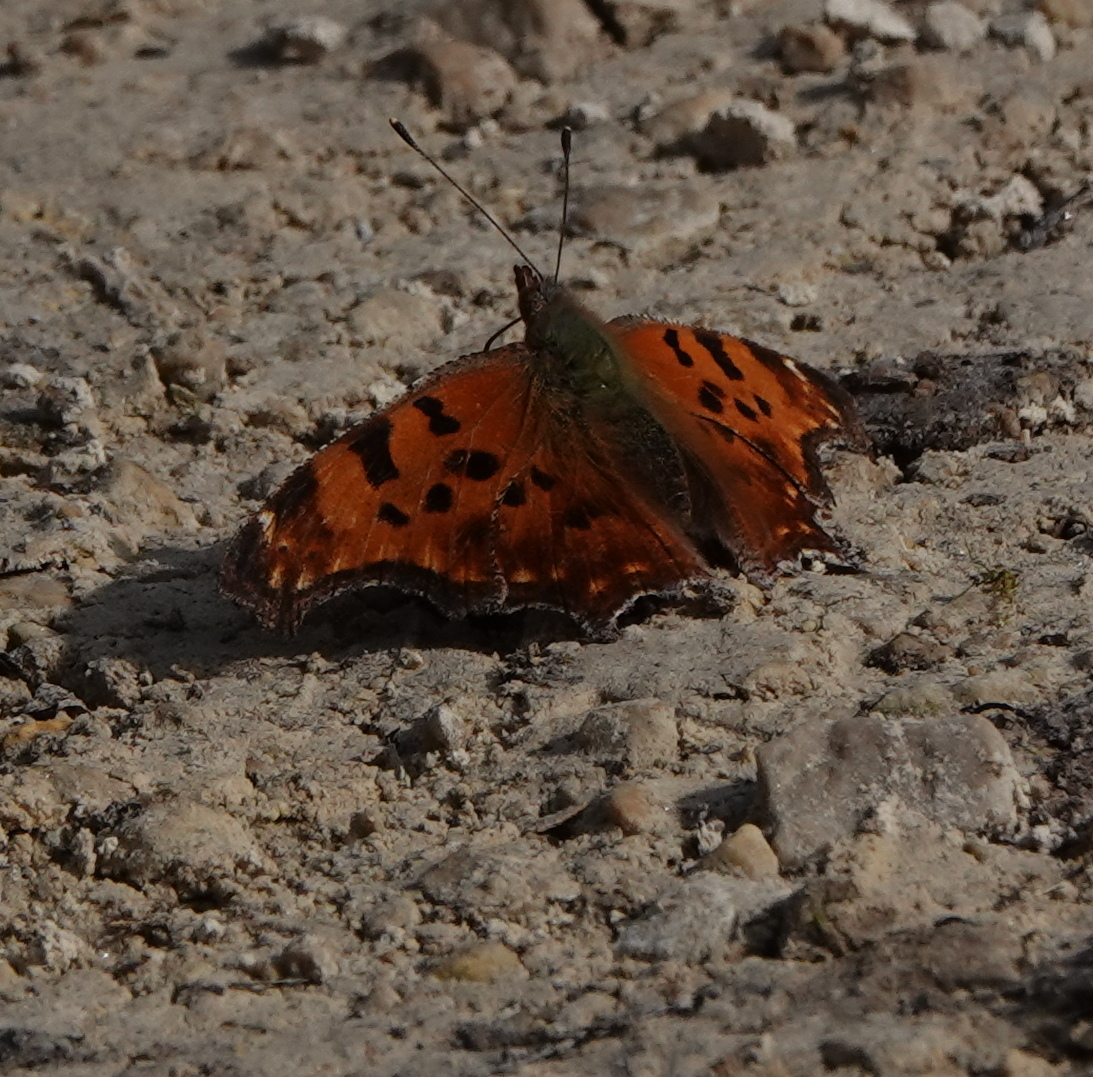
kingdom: Animalia
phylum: Arthropoda
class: Insecta
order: Lepidoptera
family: Nymphalidae
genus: Polygonia
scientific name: Polygonia comma
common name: Eastern comma
